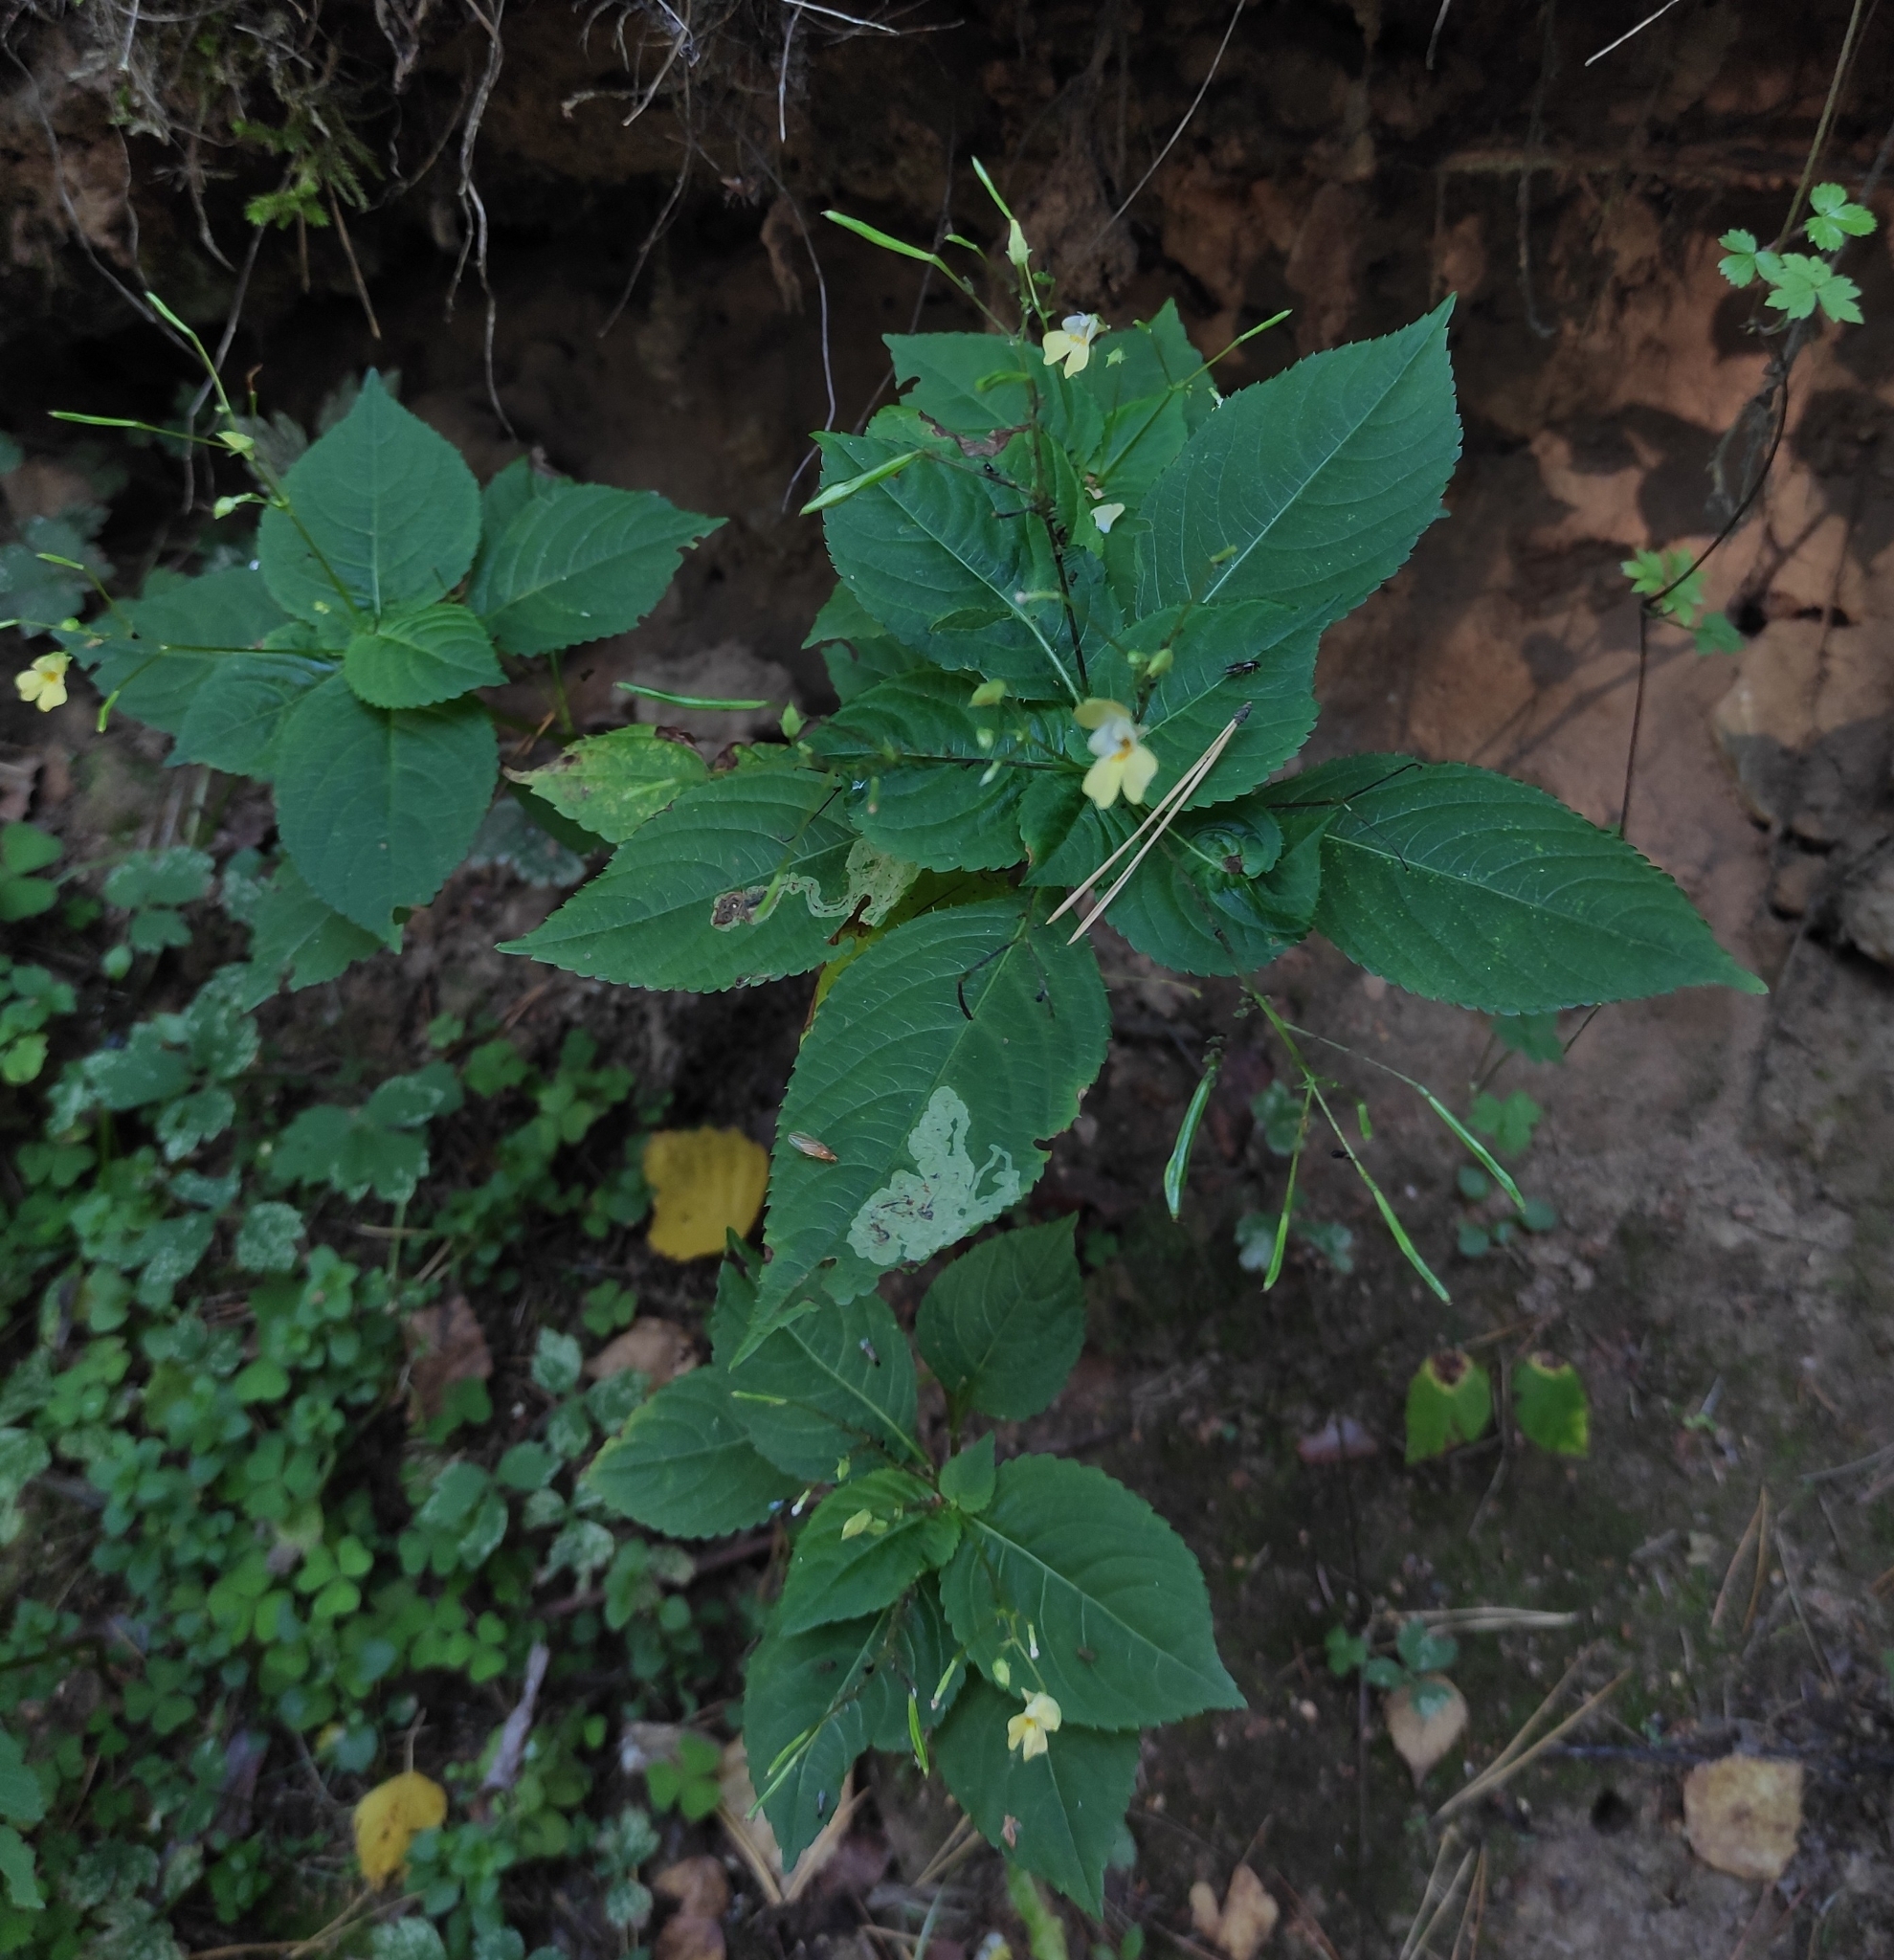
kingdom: Plantae
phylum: Tracheophyta
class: Magnoliopsida
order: Ericales
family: Balsaminaceae
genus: Impatiens
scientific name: Impatiens parviflora
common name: Small balsam
